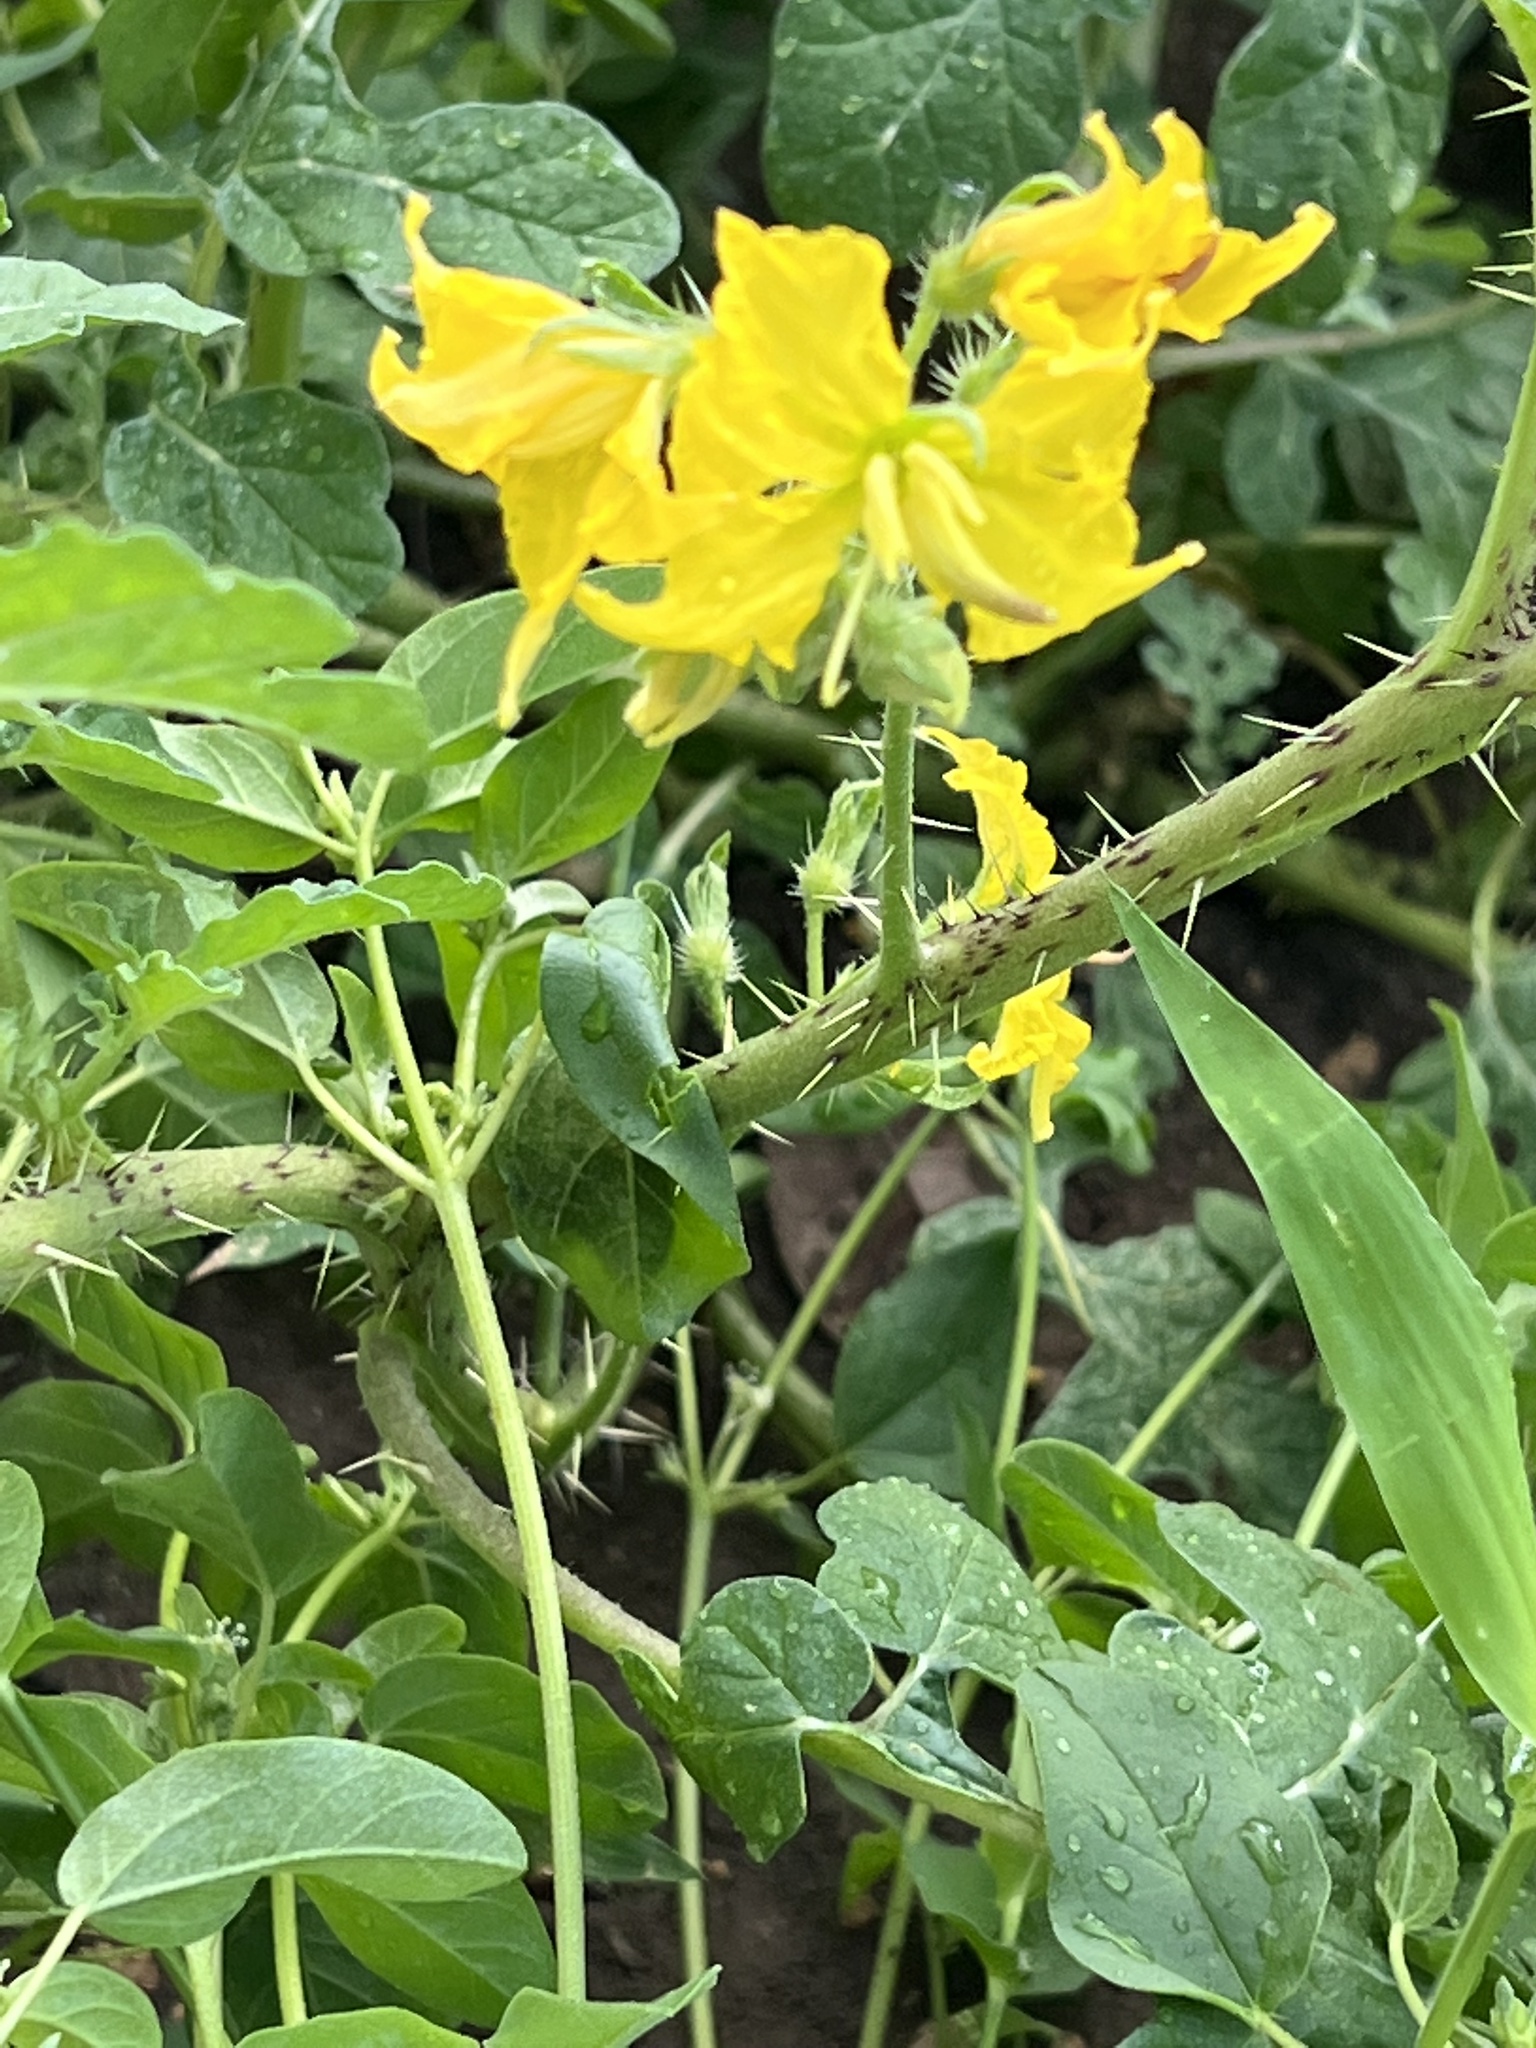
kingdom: Plantae
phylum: Tracheophyta
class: Magnoliopsida
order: Solanales
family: Solanaceae
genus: Solanum
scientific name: Solanum angustifolium
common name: Buffalobur nightshade
